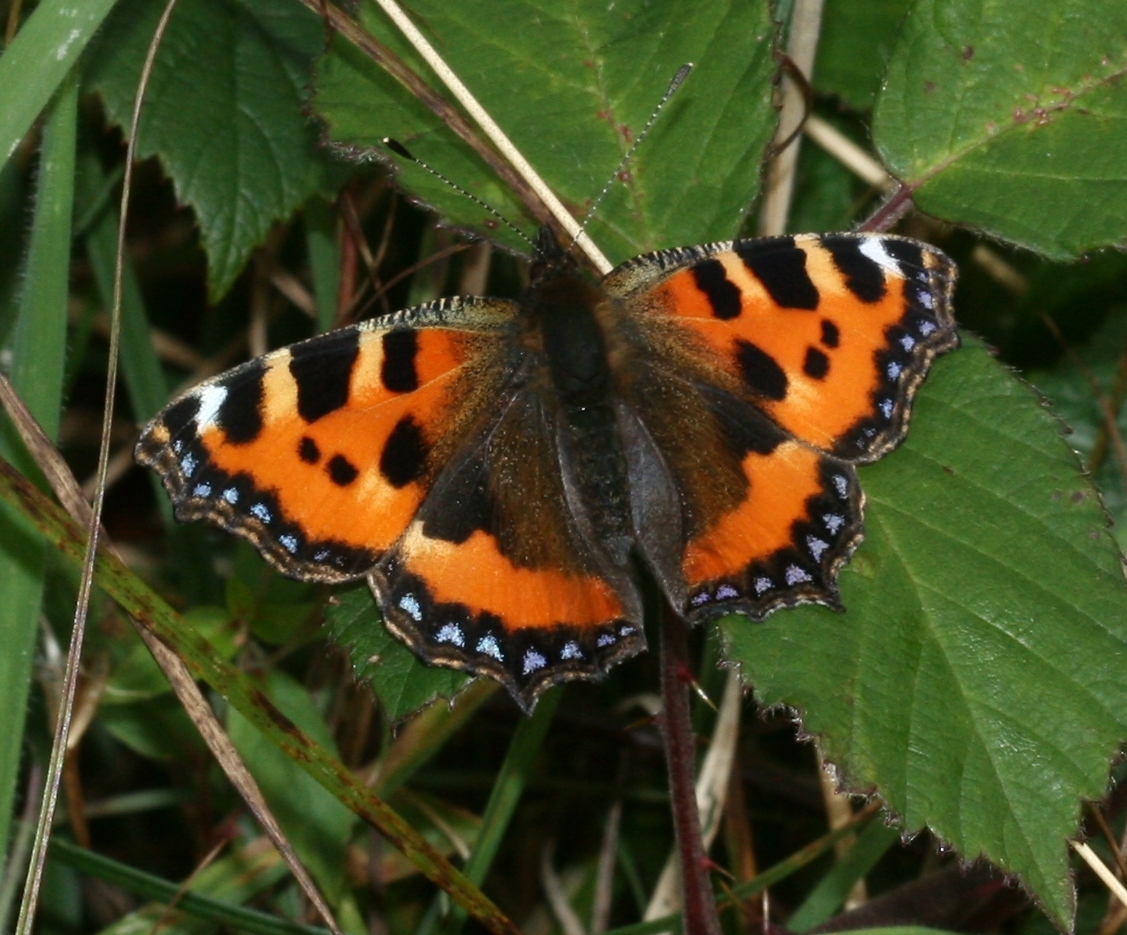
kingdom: Animalia
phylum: Arthropoda
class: Insecta
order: Lepidoptera
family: Nymphalidae
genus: Aglais
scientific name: Aglais urticae
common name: Small tortoiseshell
